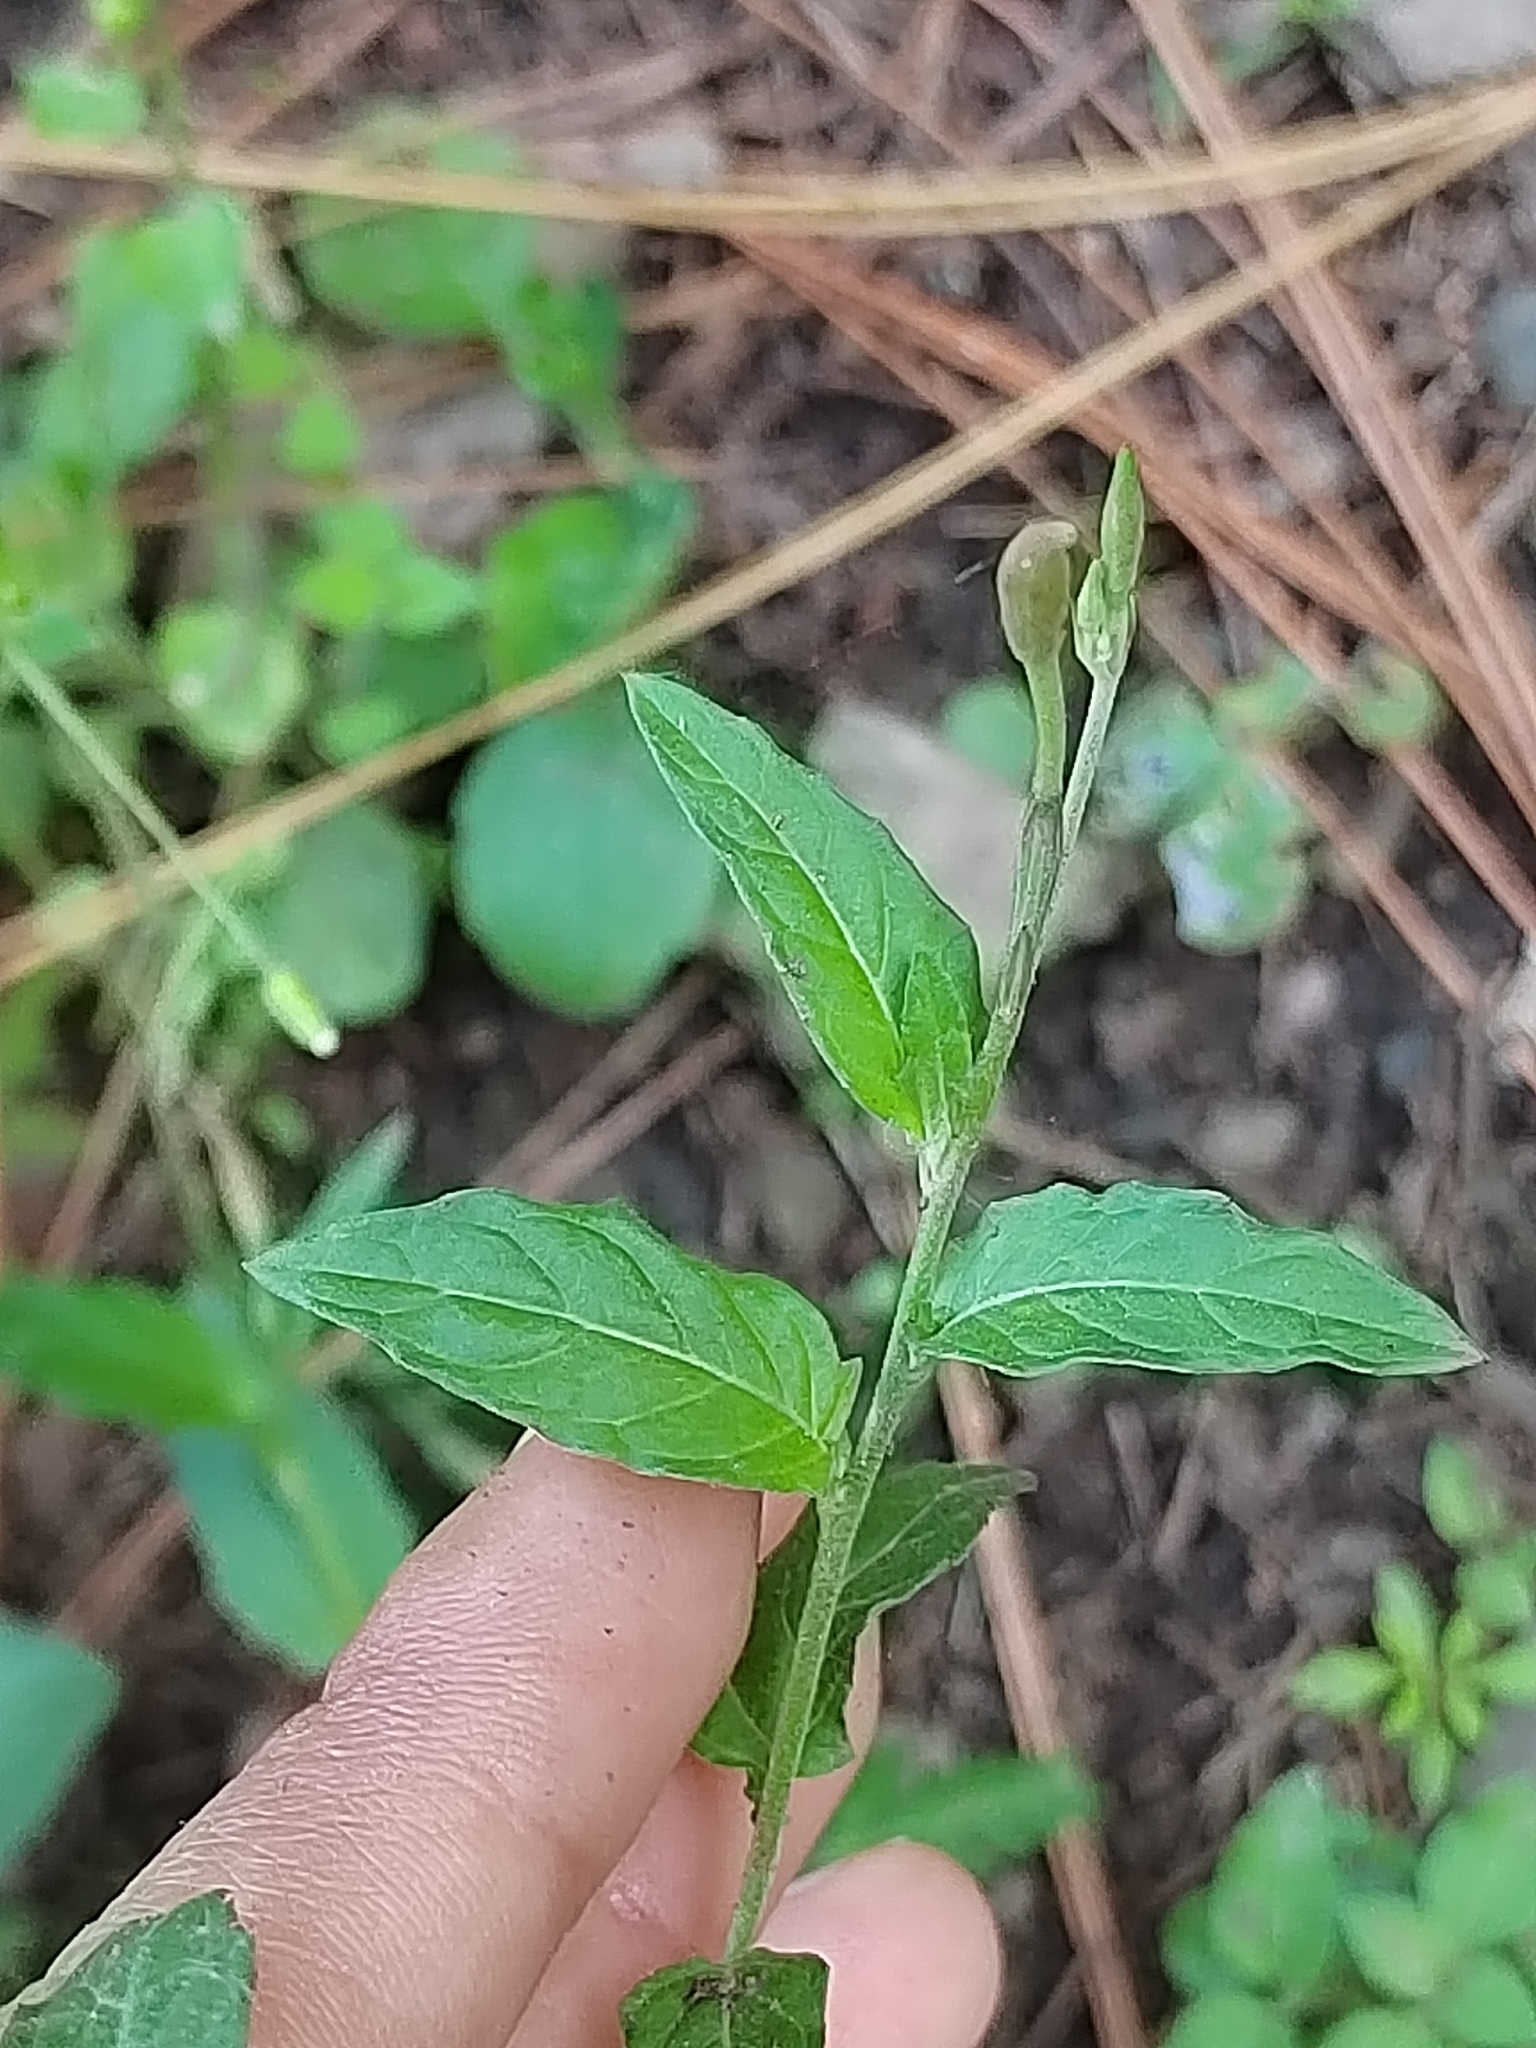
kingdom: Plantae
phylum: Tracheophyta
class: Magnoliopsida
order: Myrtales
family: Onagraceae
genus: Oenothera
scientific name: Oenothera rosea
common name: Rosy evening-primrose
